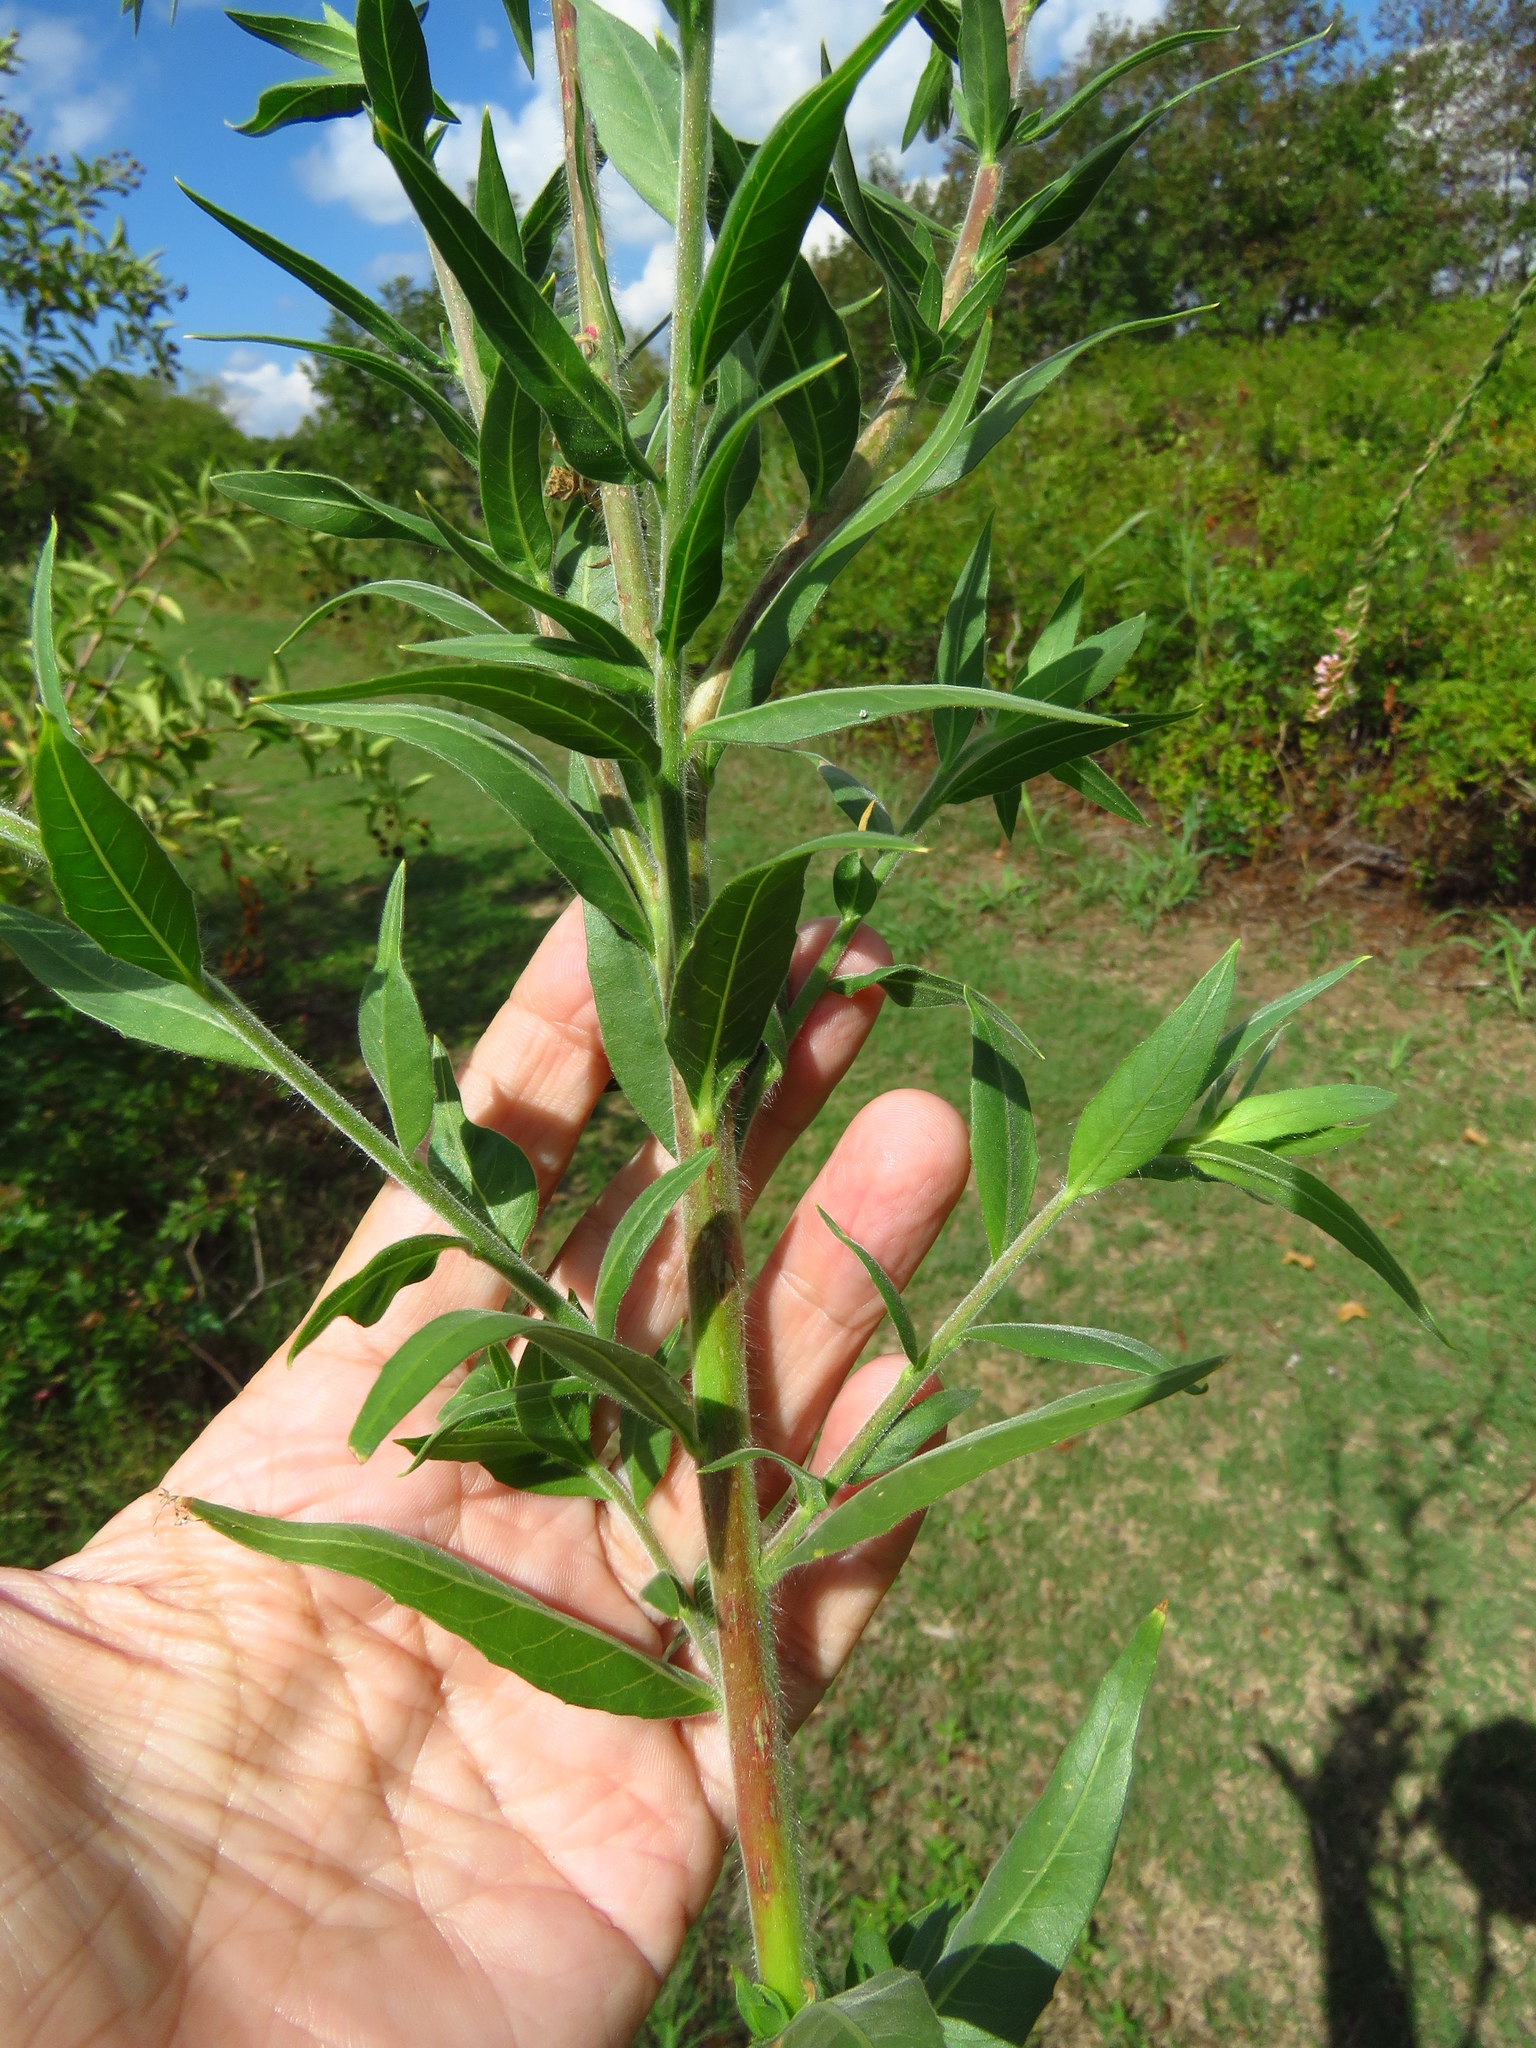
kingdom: Plantae
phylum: Tracheophyta
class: Magnoliopsida
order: Myrtales
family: Onagraceae
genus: Oenothera
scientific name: Oenothera curtiflora
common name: Velvetweed
